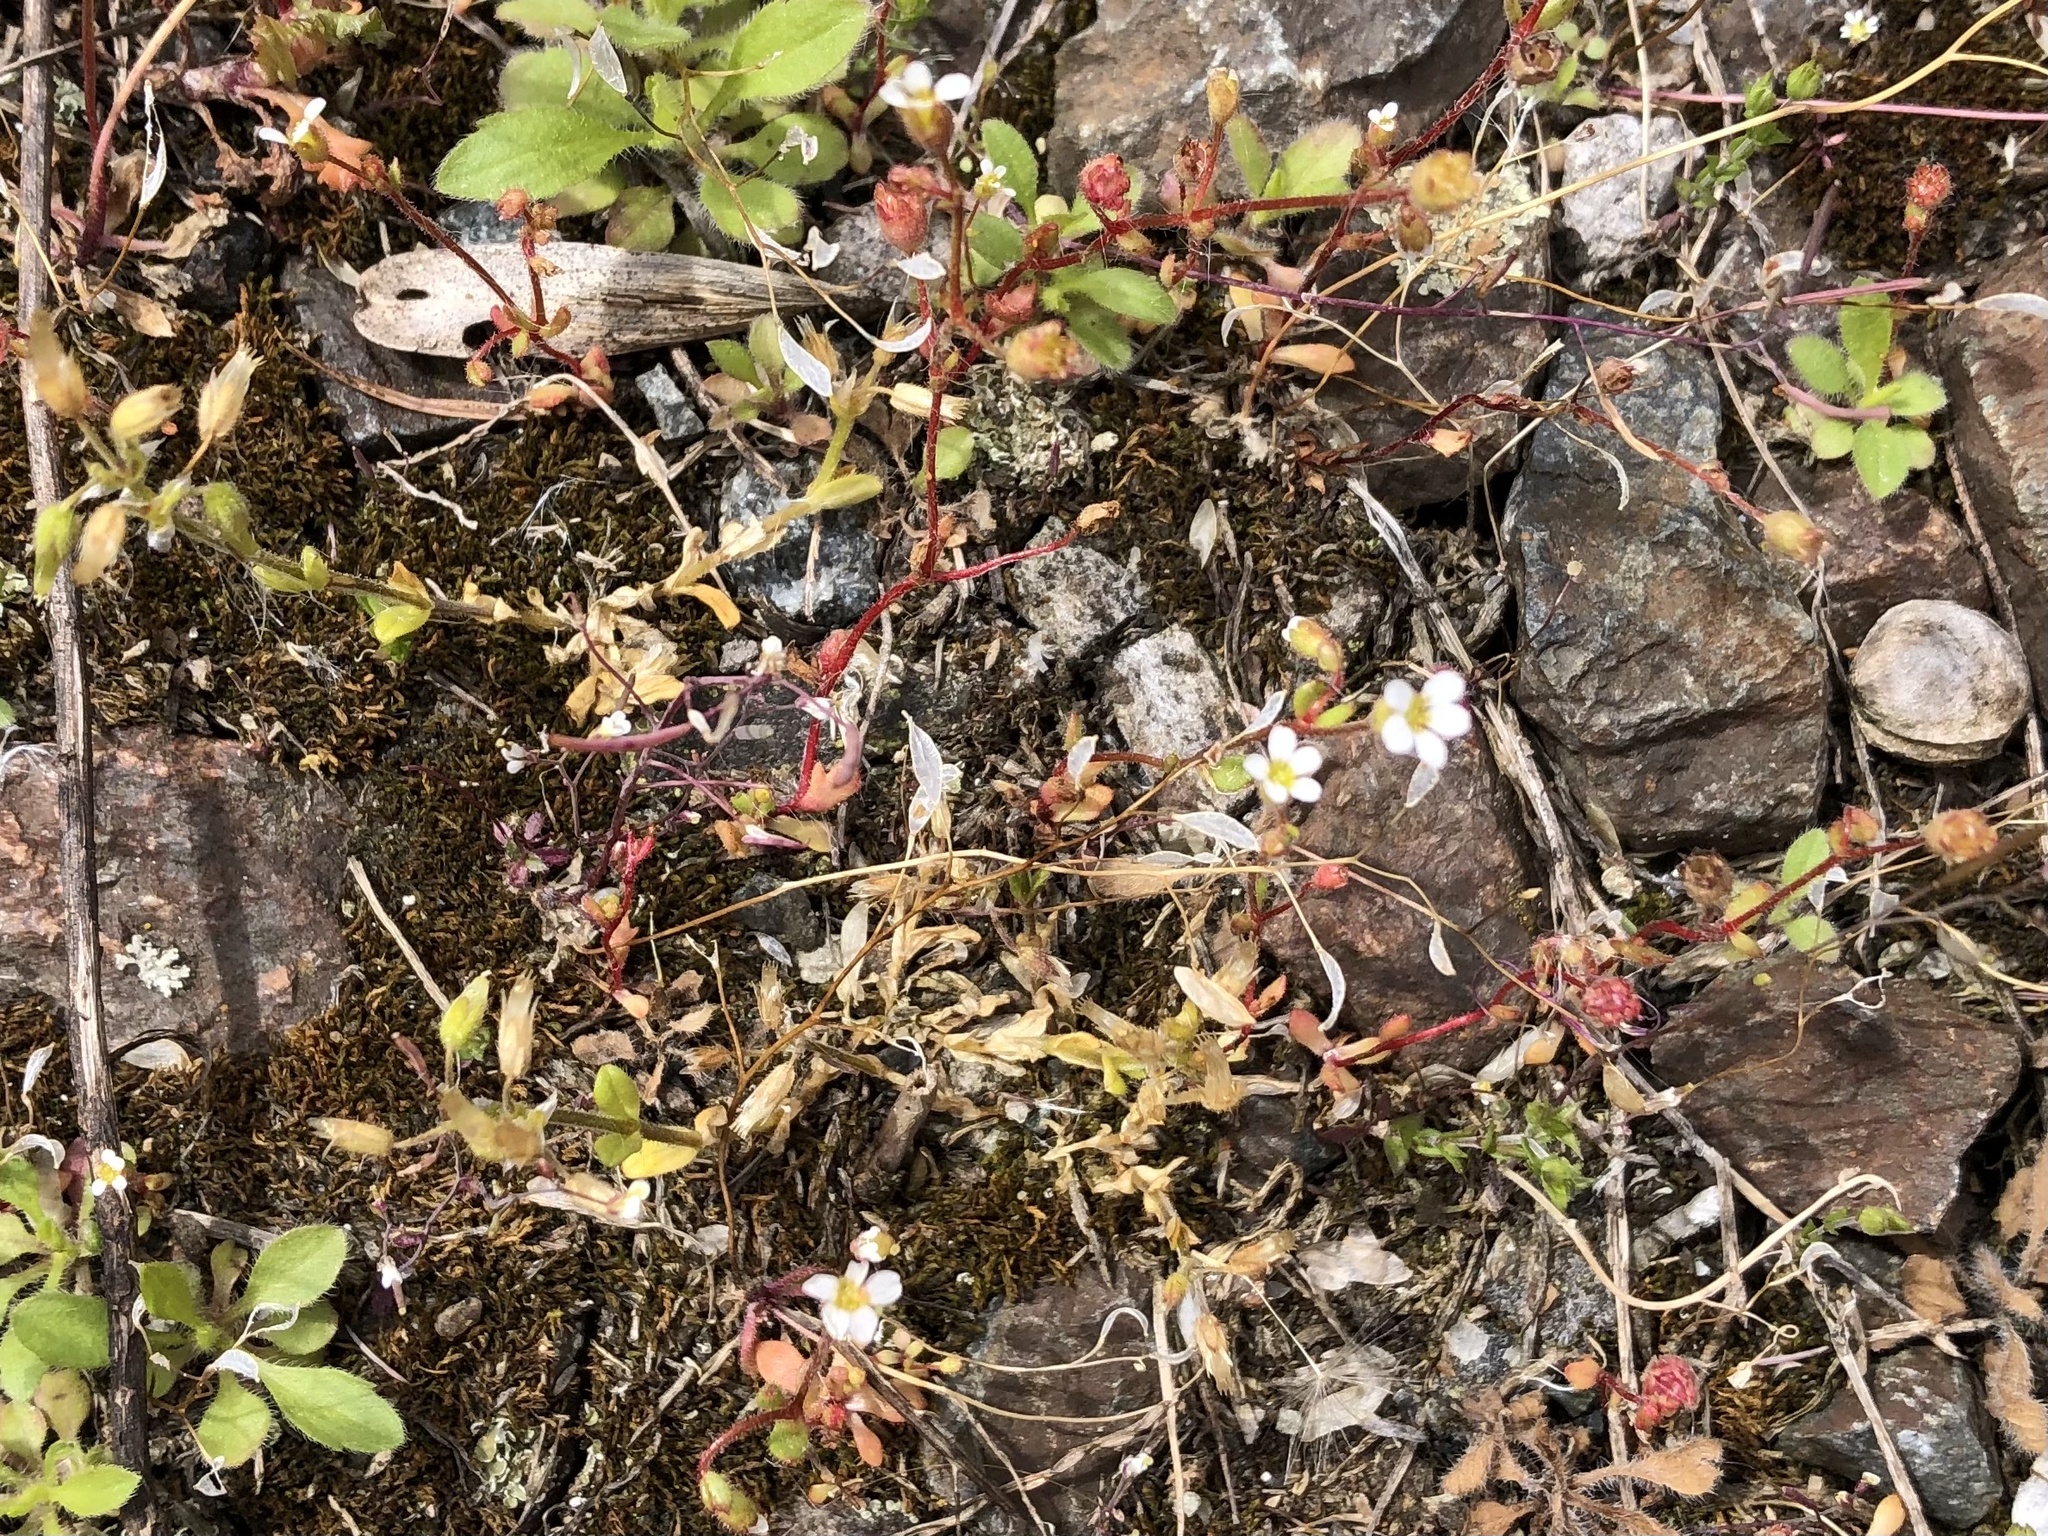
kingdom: Plantae
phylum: Tracheophyta
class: Magnoliopsida
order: Saxifragales
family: Saxifragaceae
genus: Saxifraga
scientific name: Saxifraga tridactylites
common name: Rue-leaved saxifrage
